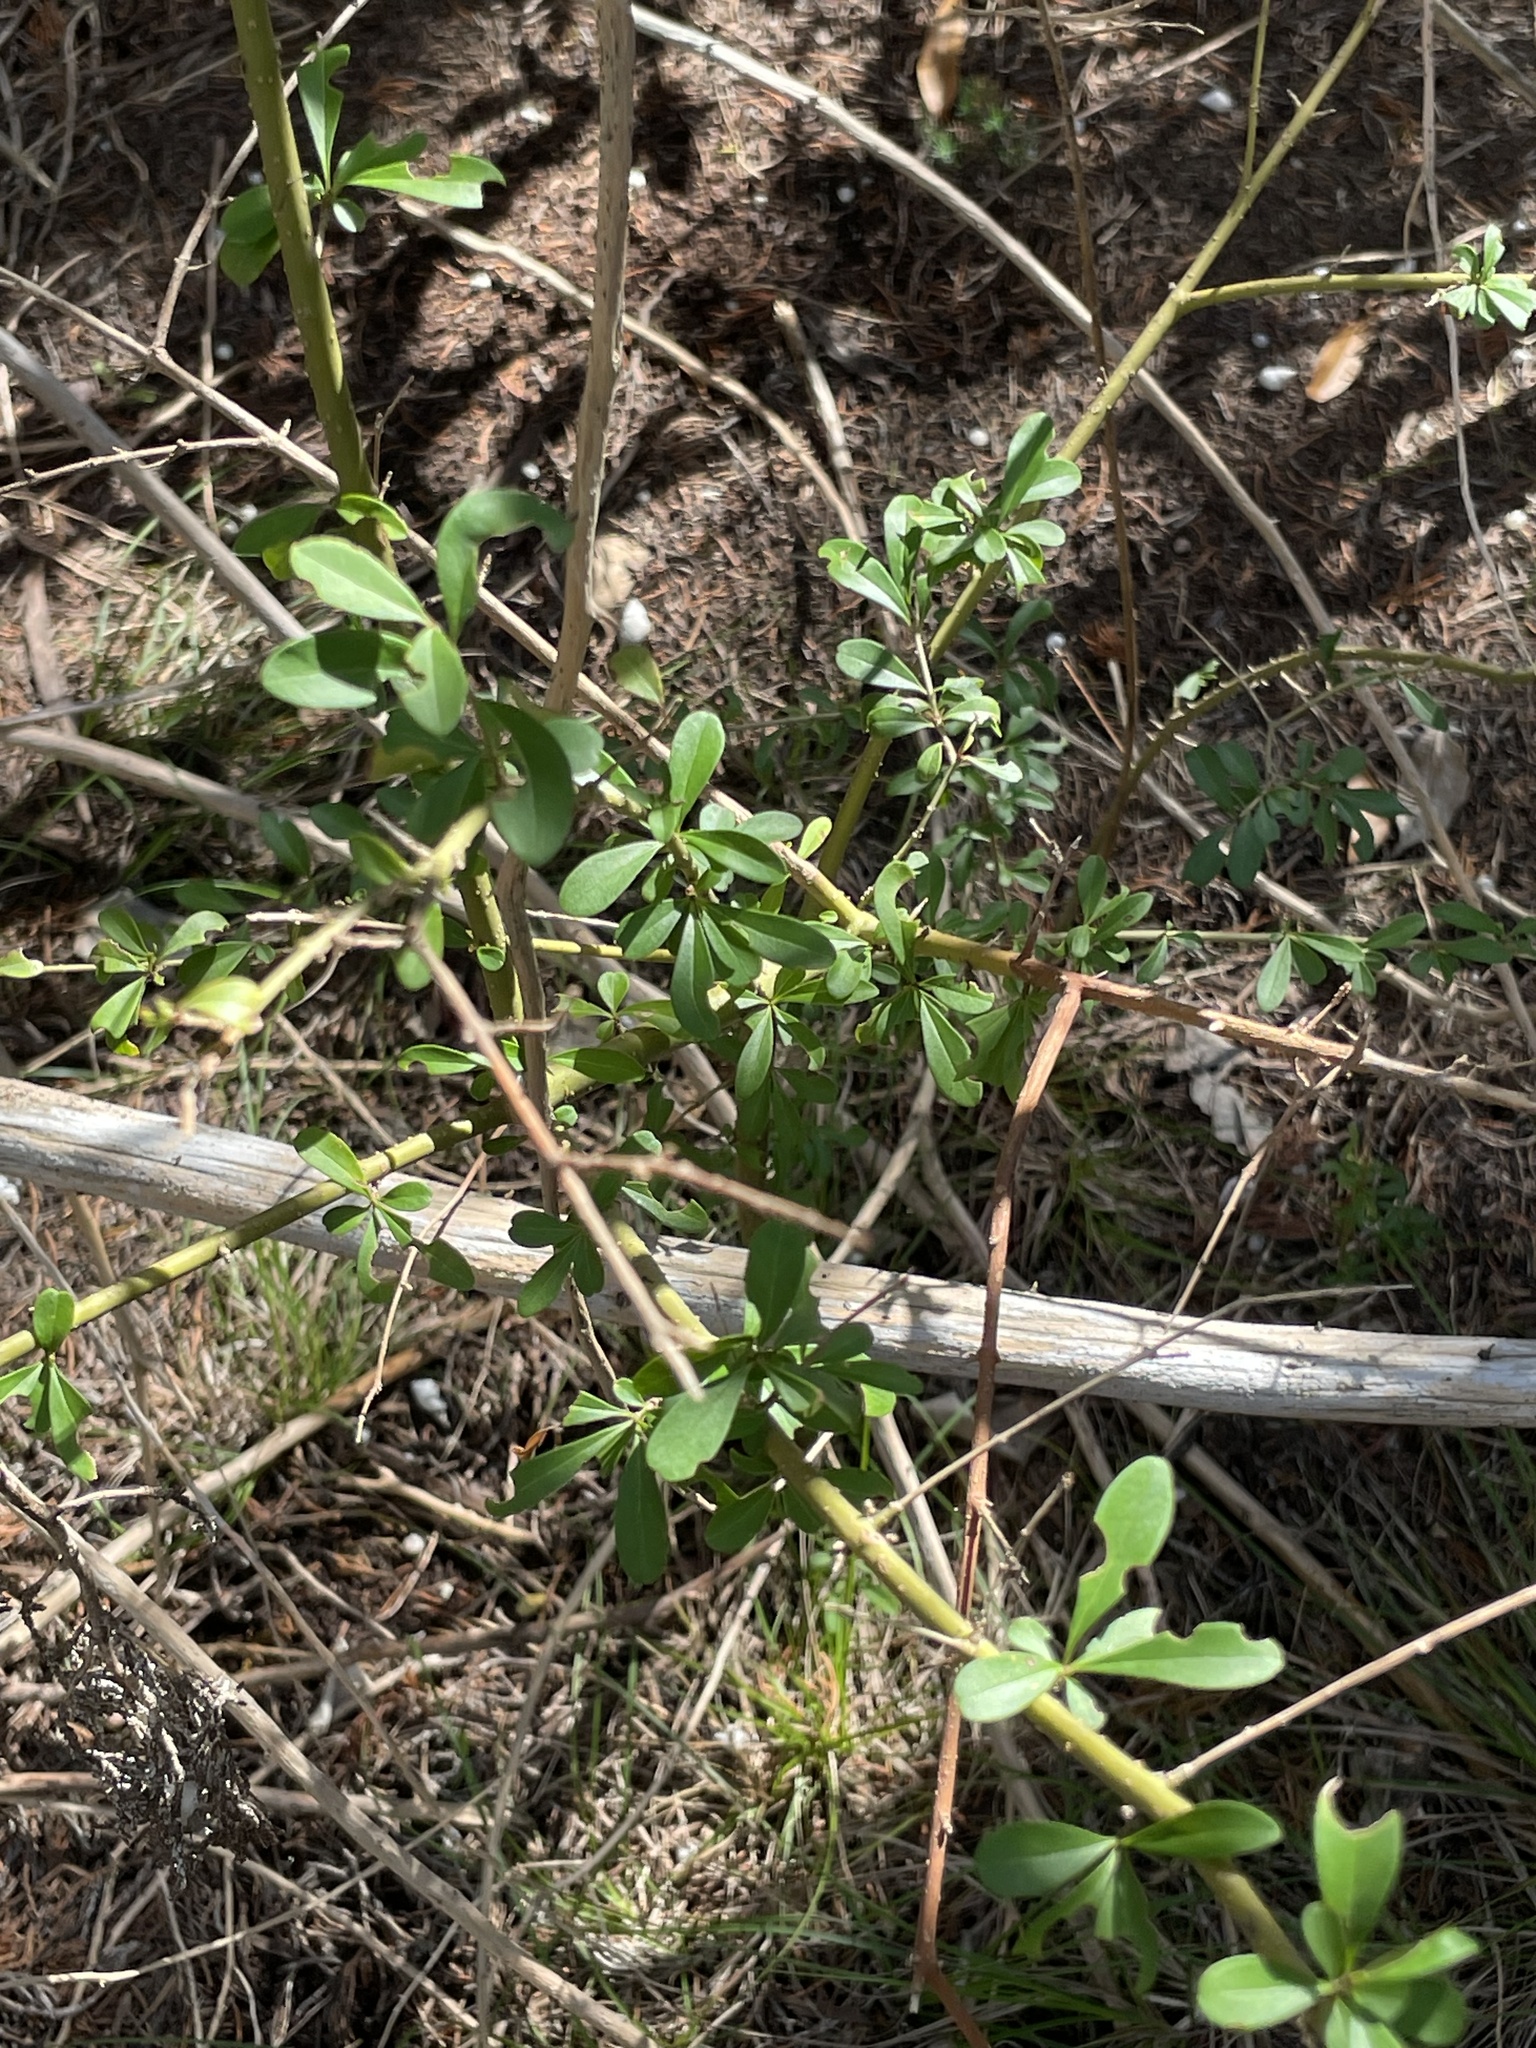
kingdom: Plantae
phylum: Tracheophyta
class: Magnoliopsida
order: Lamiales
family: Oleaceae
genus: Ligustrum
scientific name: Ligustrum quihoui
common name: Waxyleaf privet
